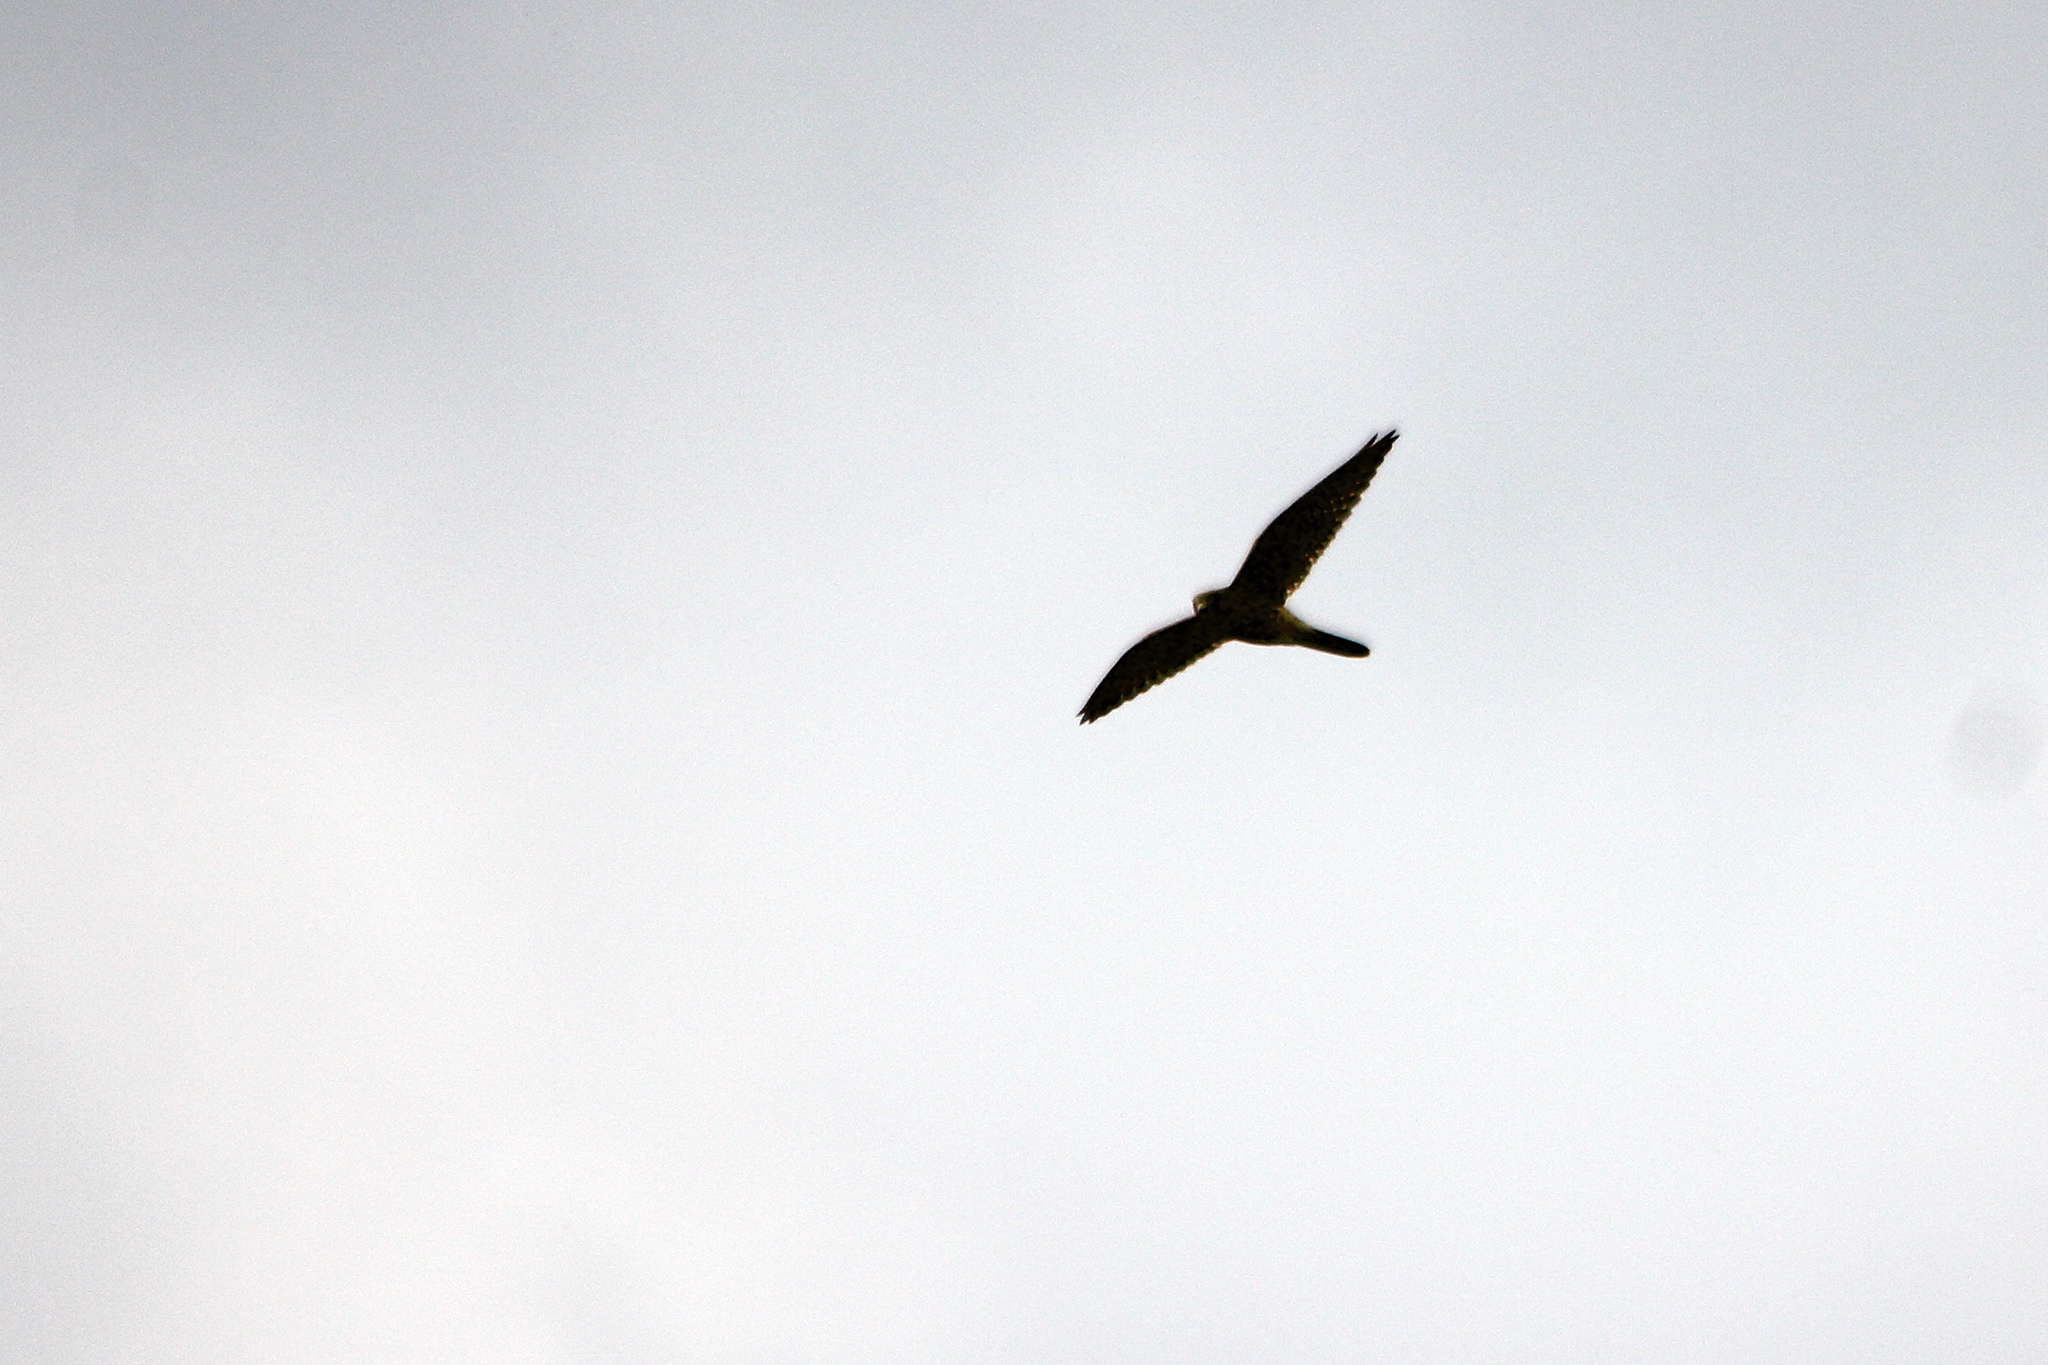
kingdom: Animalia
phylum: Chordata
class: Aves
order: Falconiformes
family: Falconidae
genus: Falco
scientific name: Falco tinnunculus
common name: Common kestrel
